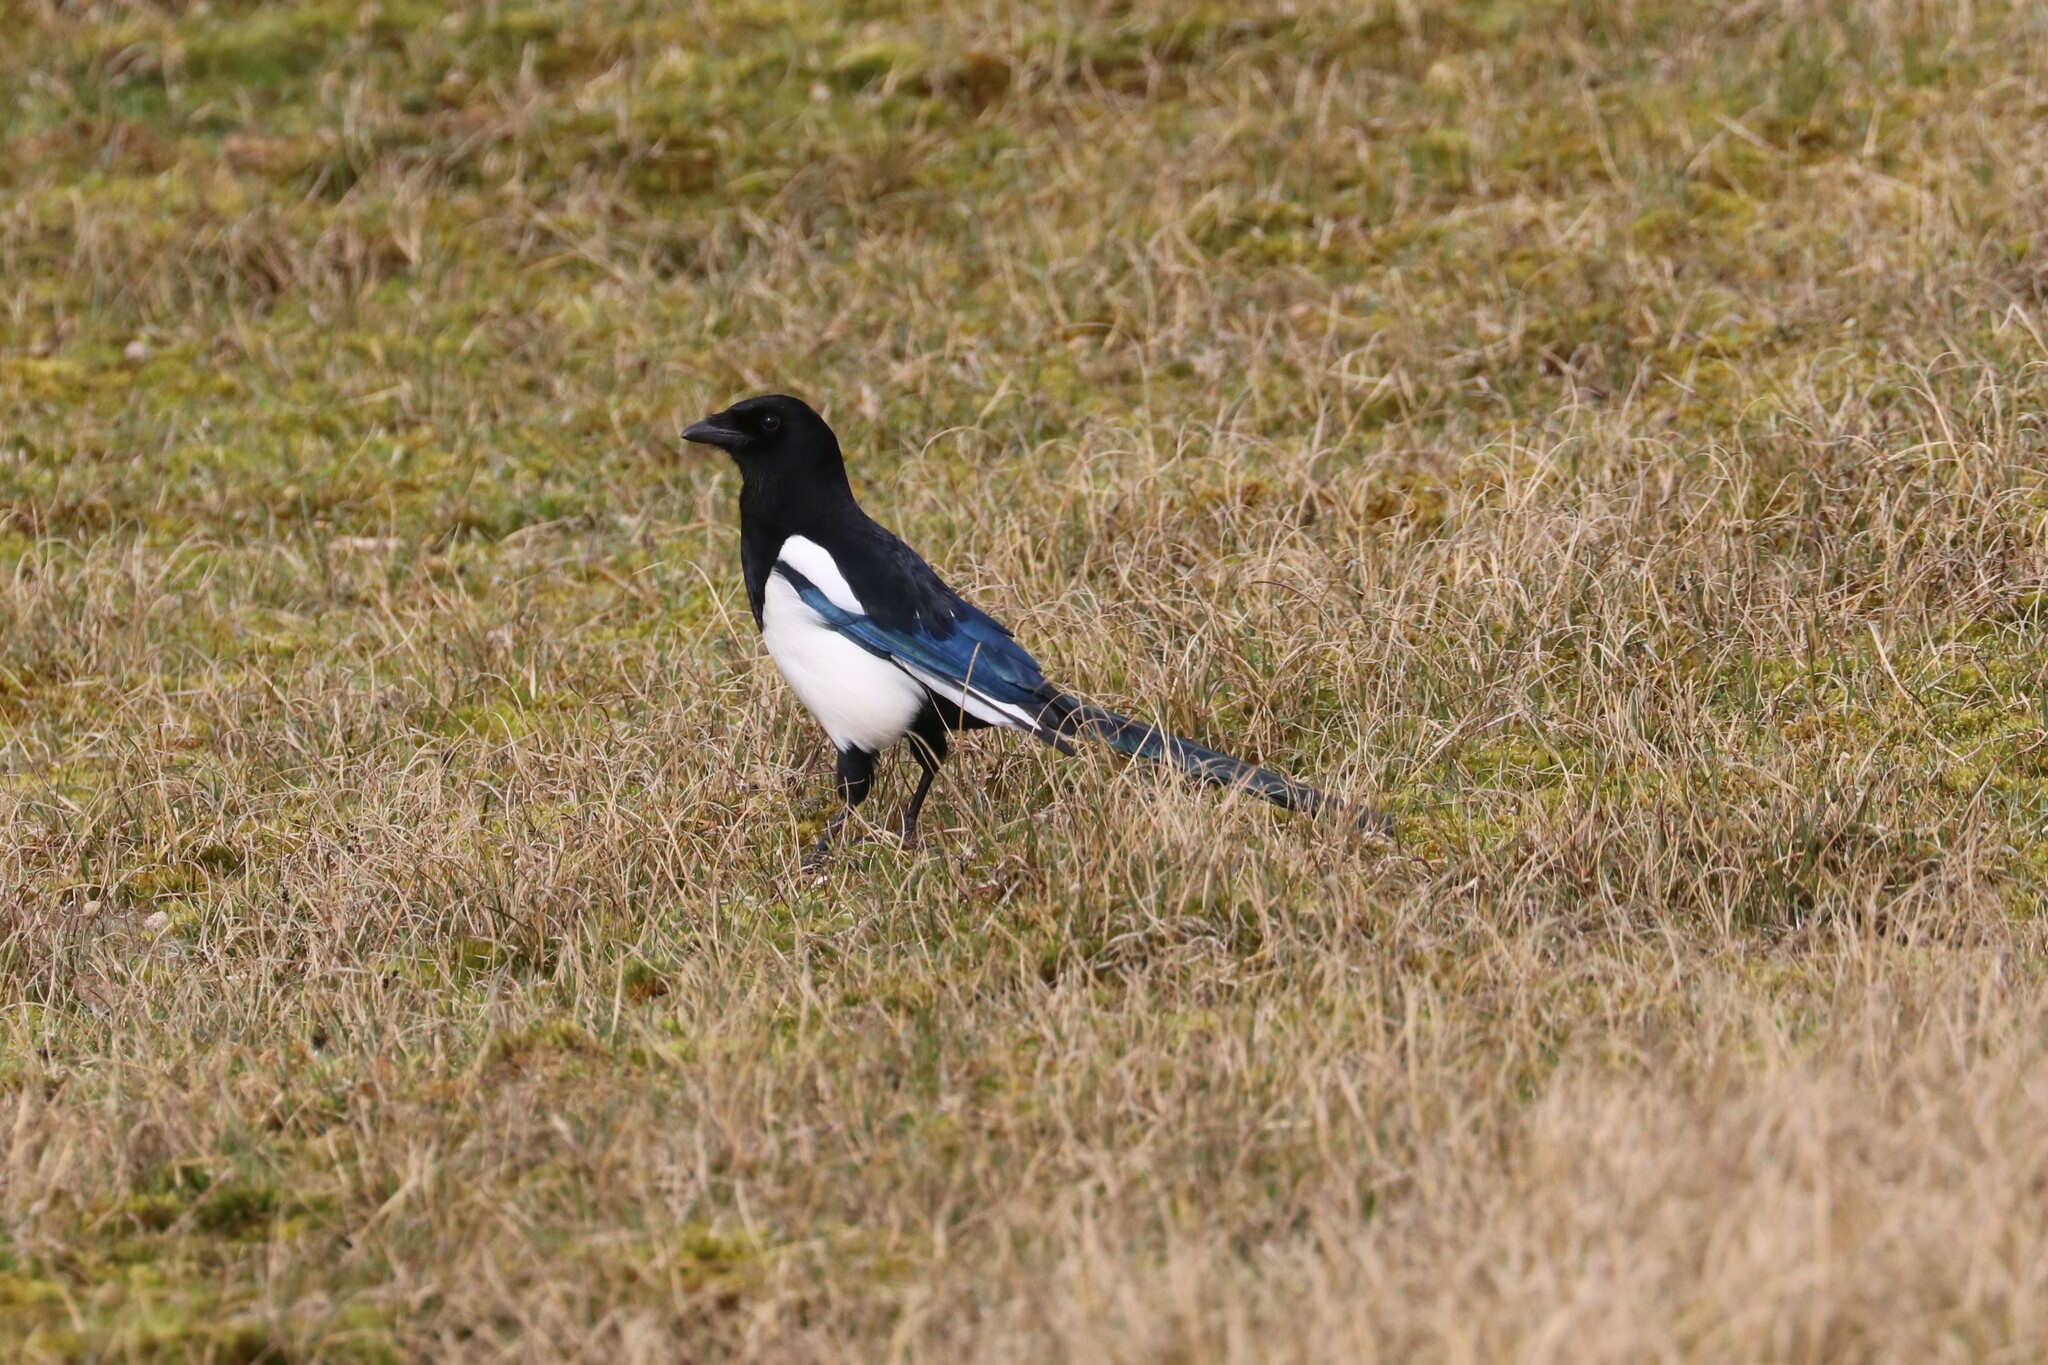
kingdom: Animalia
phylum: Chordata
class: Aves
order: Passeriformes
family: Corvidae
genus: Pica
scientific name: Pica pica
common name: Eurasian magpie
